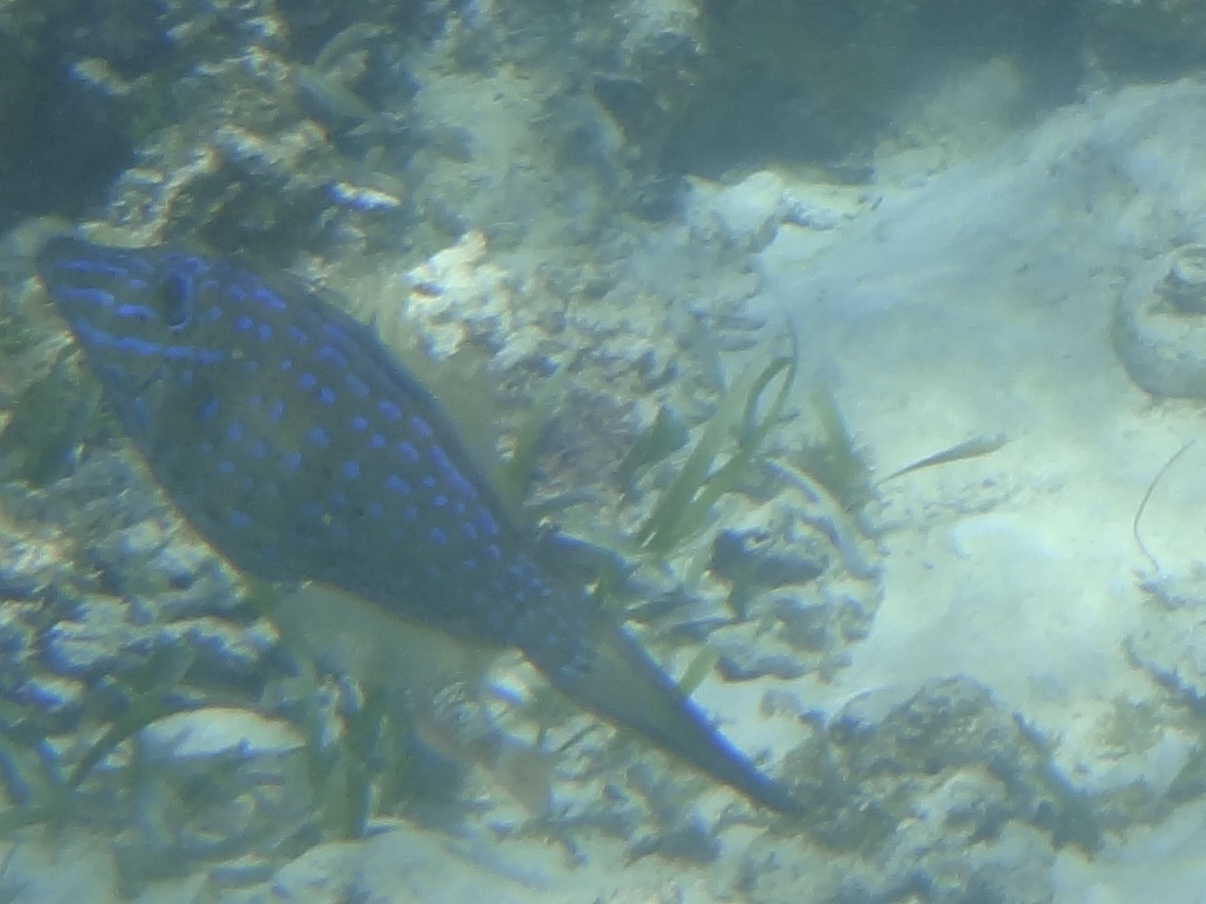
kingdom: Animalia
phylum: Chordata
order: Tetraodontiformes
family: Monacanthidae
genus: Aluterus
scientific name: Aluterus scriptus
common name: Scribbled leatherjacket filefish
